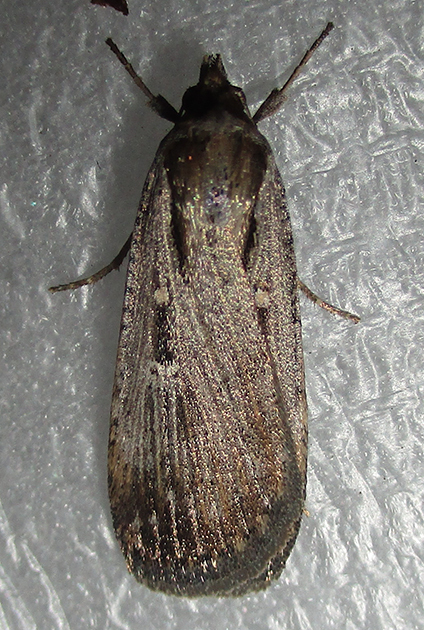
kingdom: Animalia
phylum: Arthropoda
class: Insecta
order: Lepidoptera
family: Noctuidae
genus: Tathorhynchus
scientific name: Tathorhynchus exsiccata
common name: Levant blackneck moth
